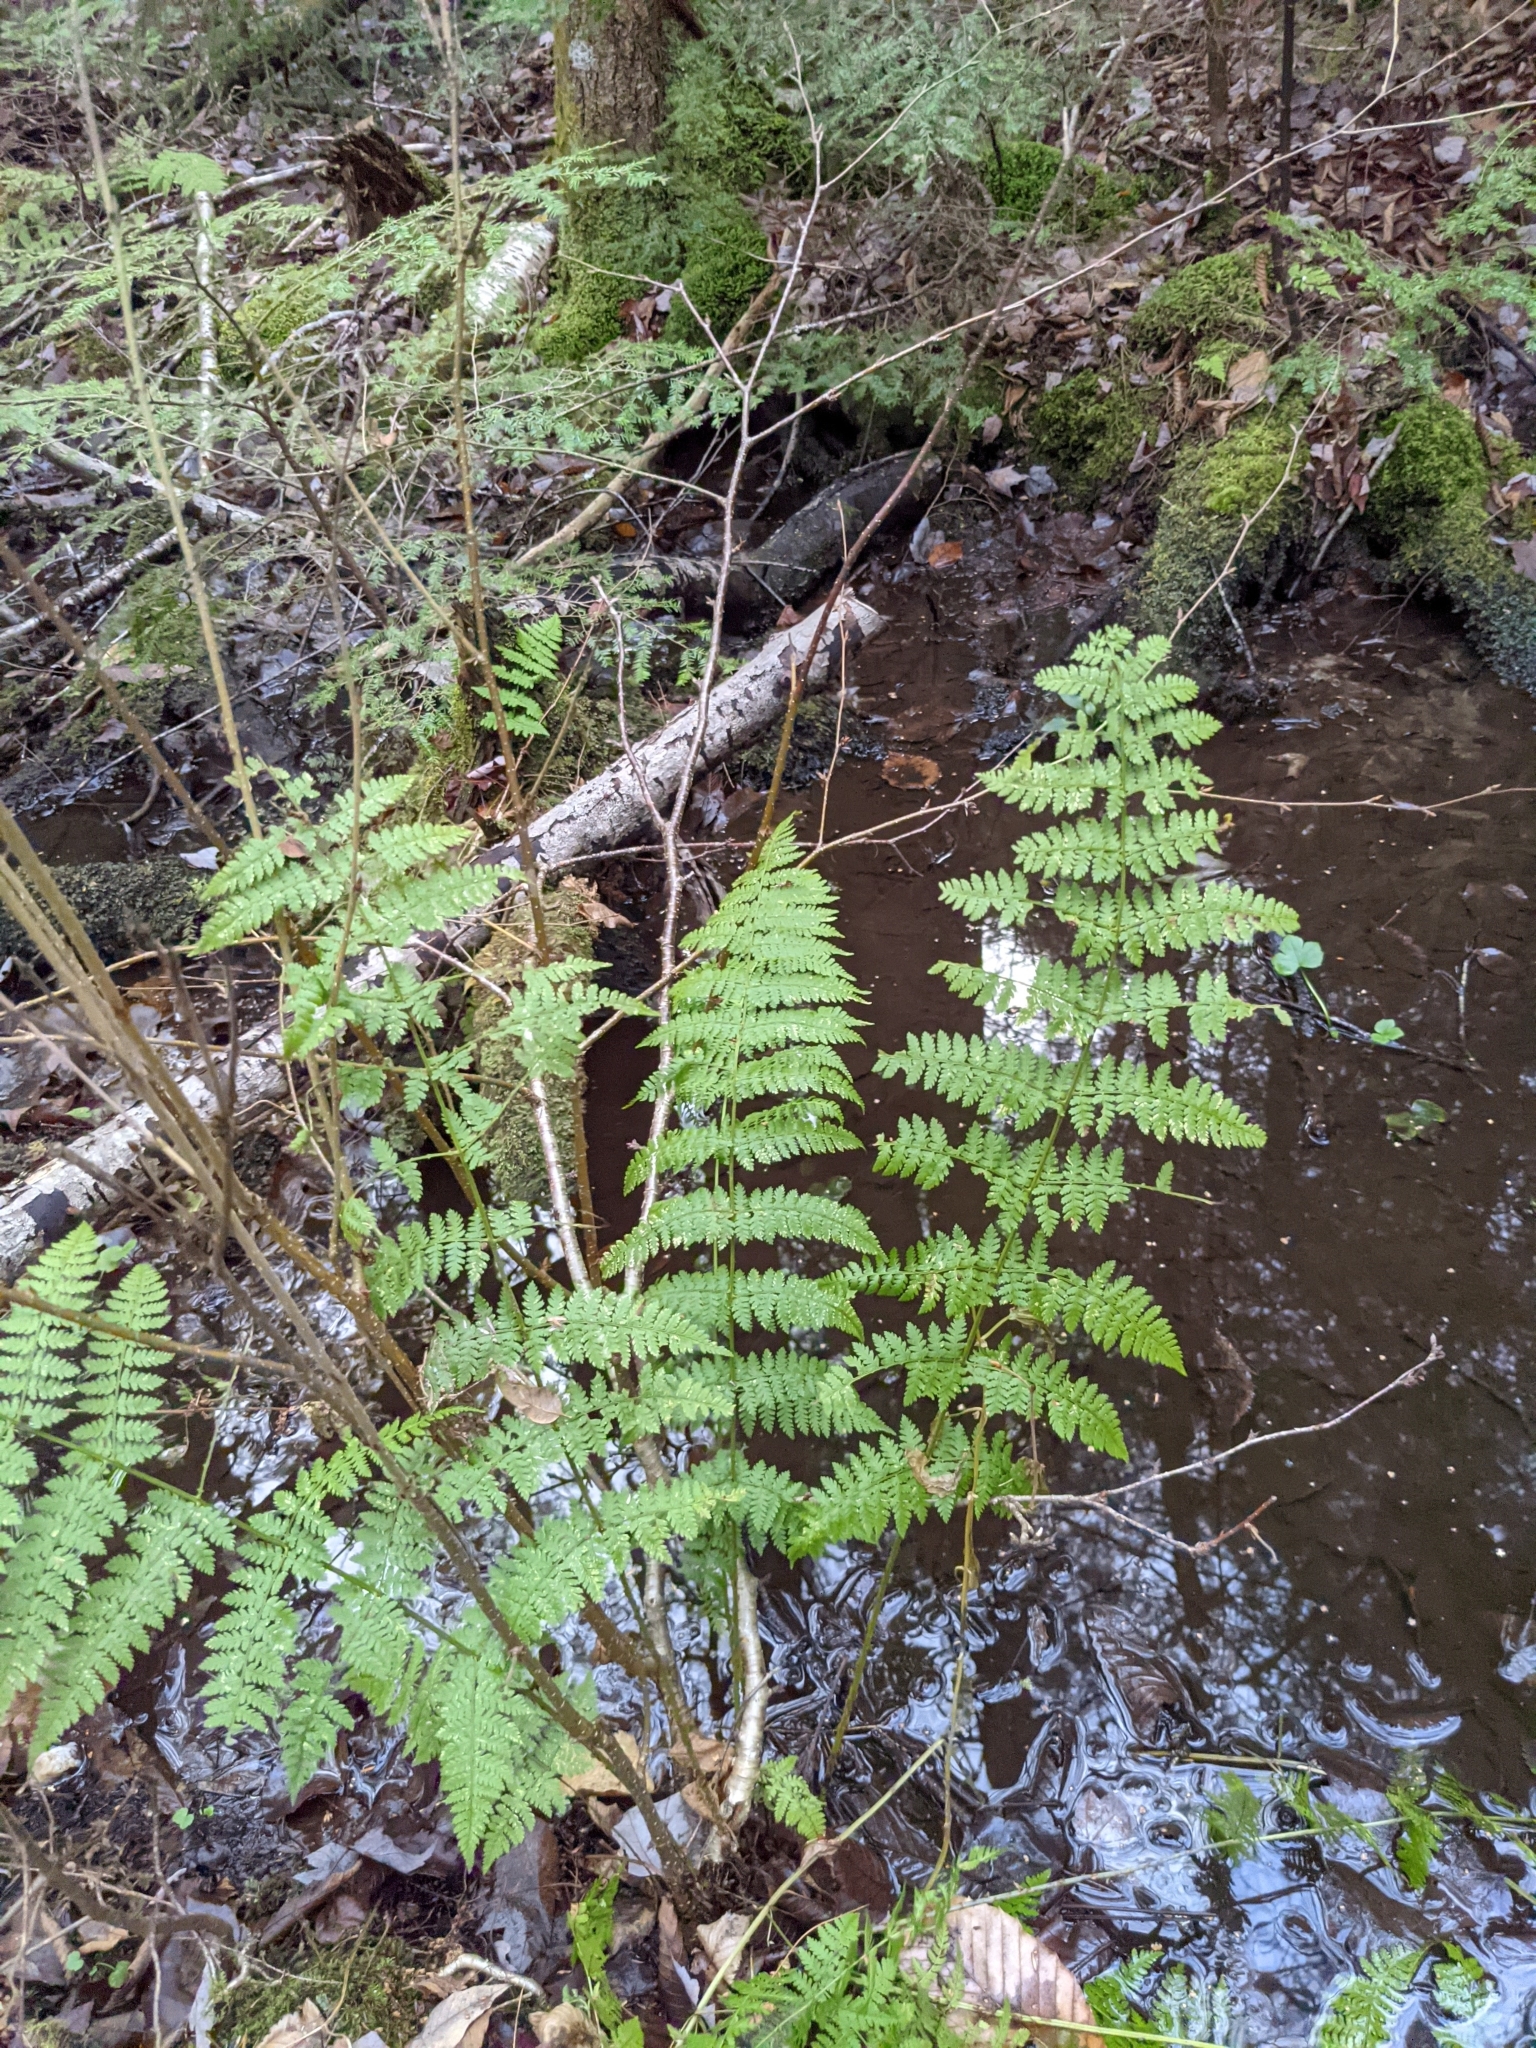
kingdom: Plantae
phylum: Tracheophyta
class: Polypodiopsida
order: Polypodiales
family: Dryopteridaceae
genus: Dryopteris
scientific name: Dryopteris intermedia
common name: Evergreen wood fern
